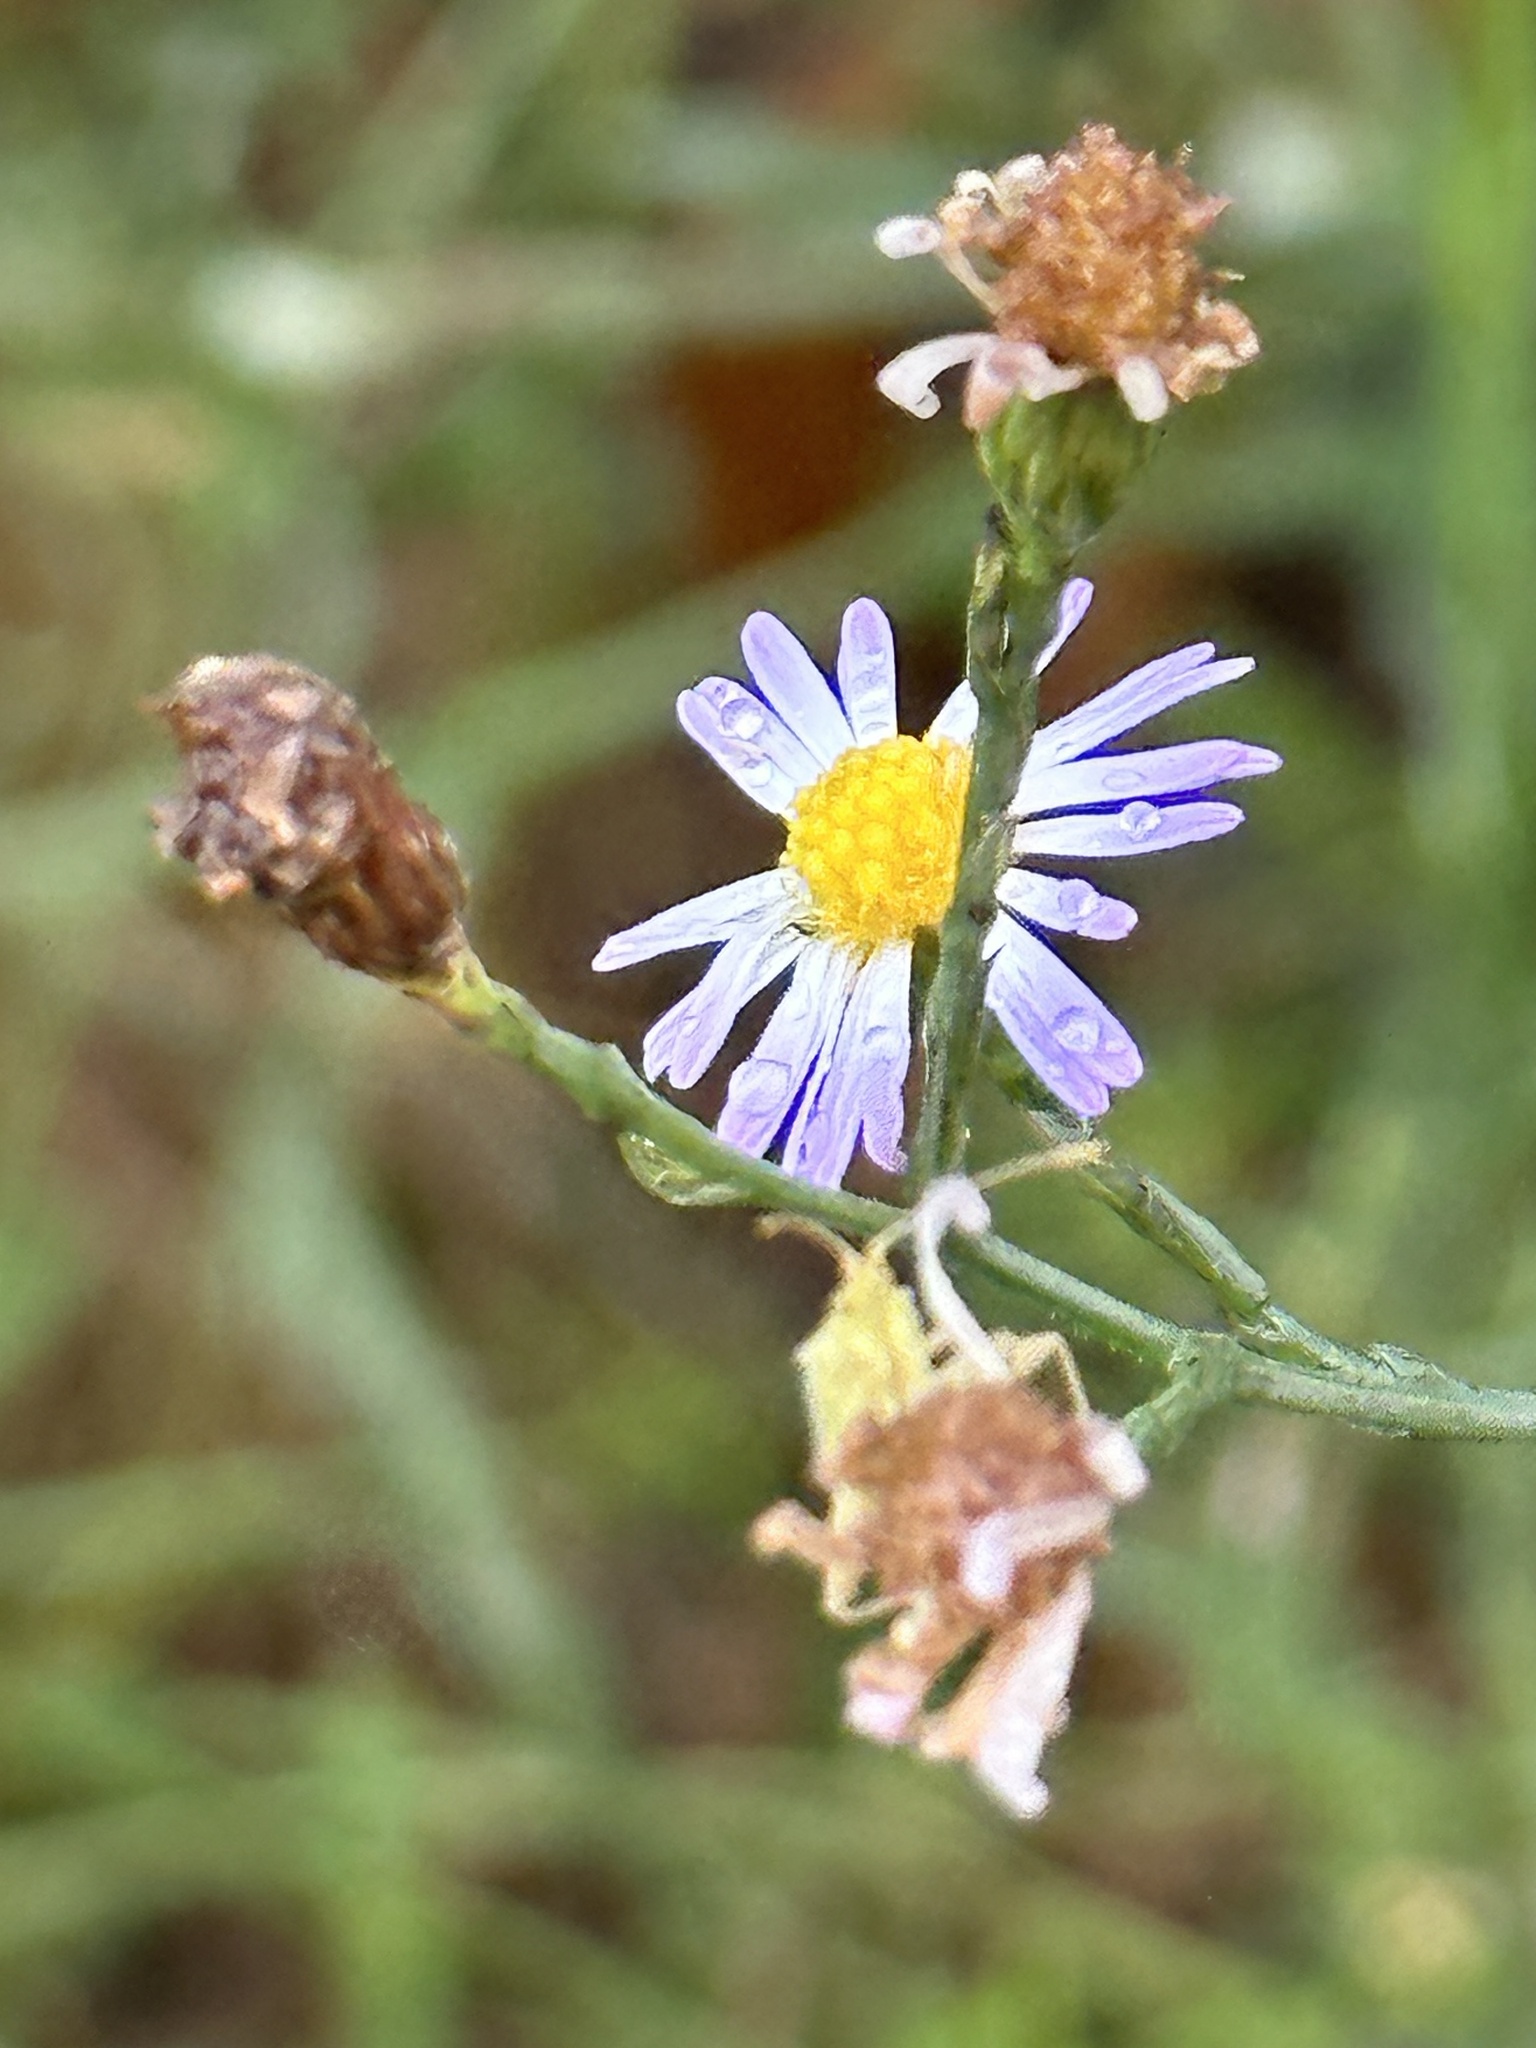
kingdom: Plantae
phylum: Tracheophyta
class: Magnoliopsida
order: Asterales
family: Asteraceae
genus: Symphyotrichum
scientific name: Symphyotrichum divaricatum
